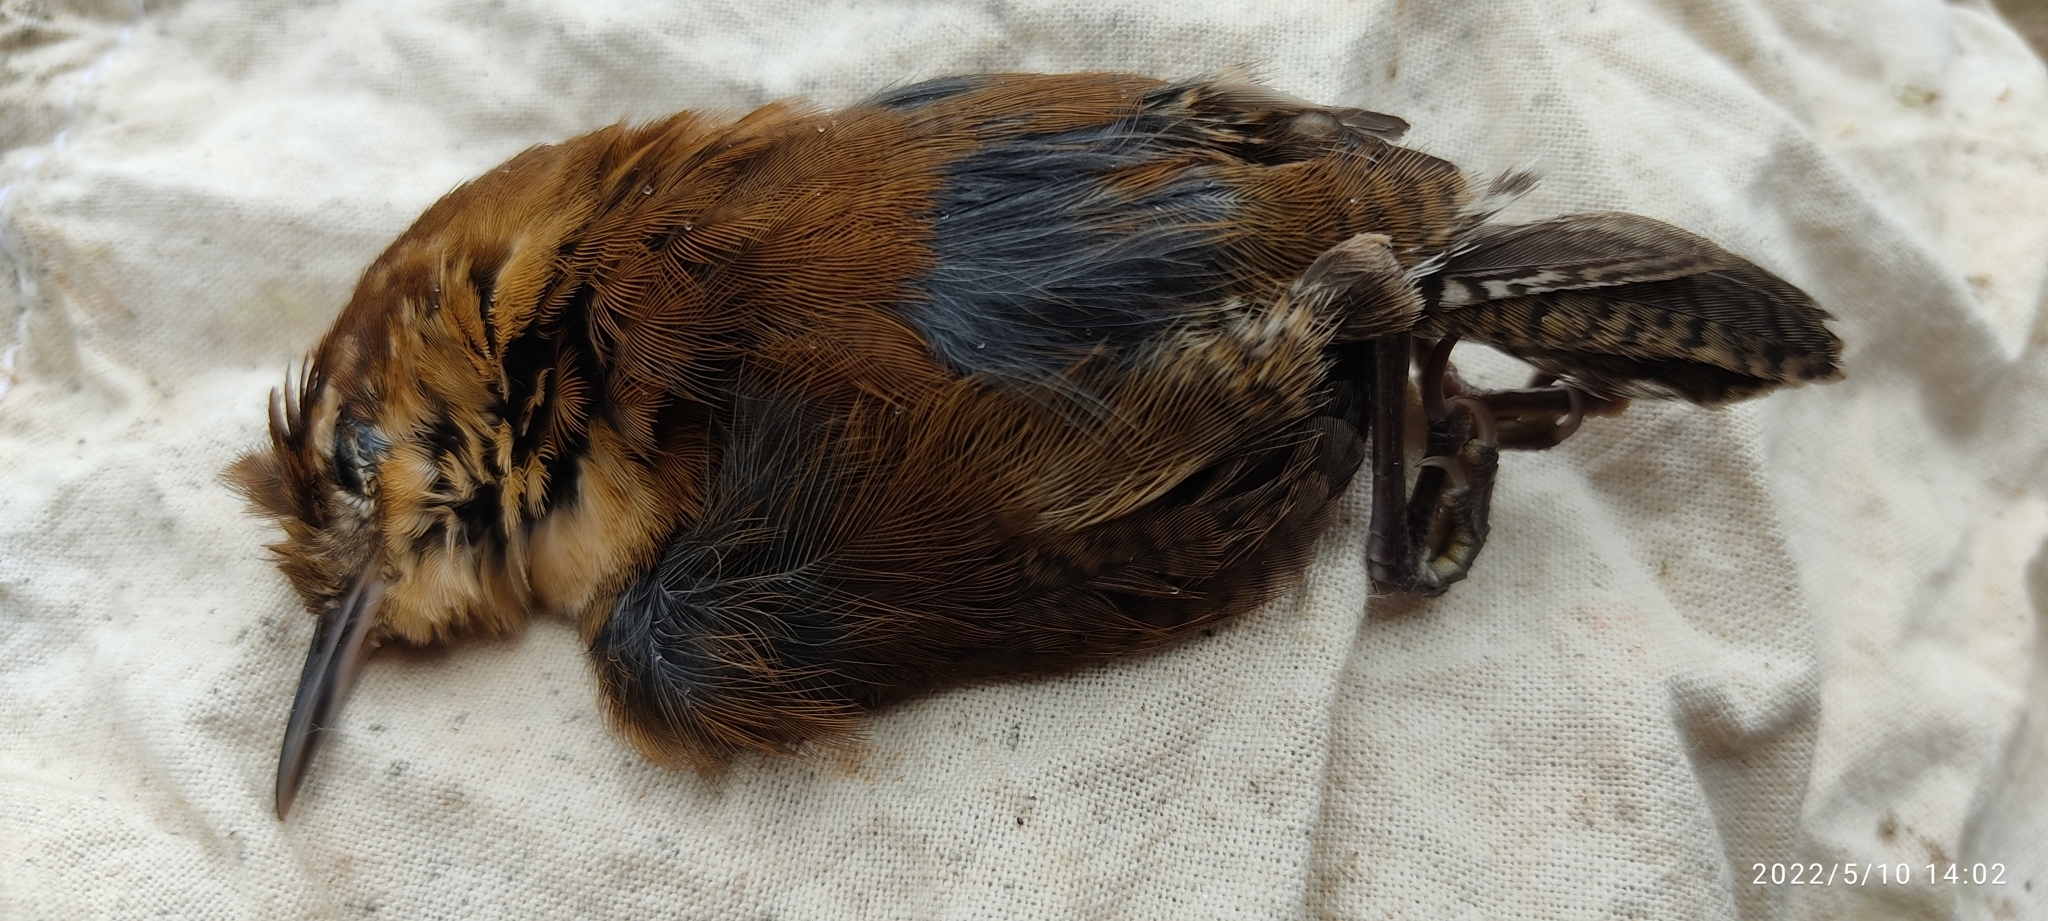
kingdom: Animalia
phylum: Chordata
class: Aves
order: Passeriformes
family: Troglodytidae
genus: Troglodytes
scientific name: Troglodytes aedon
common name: House wren
